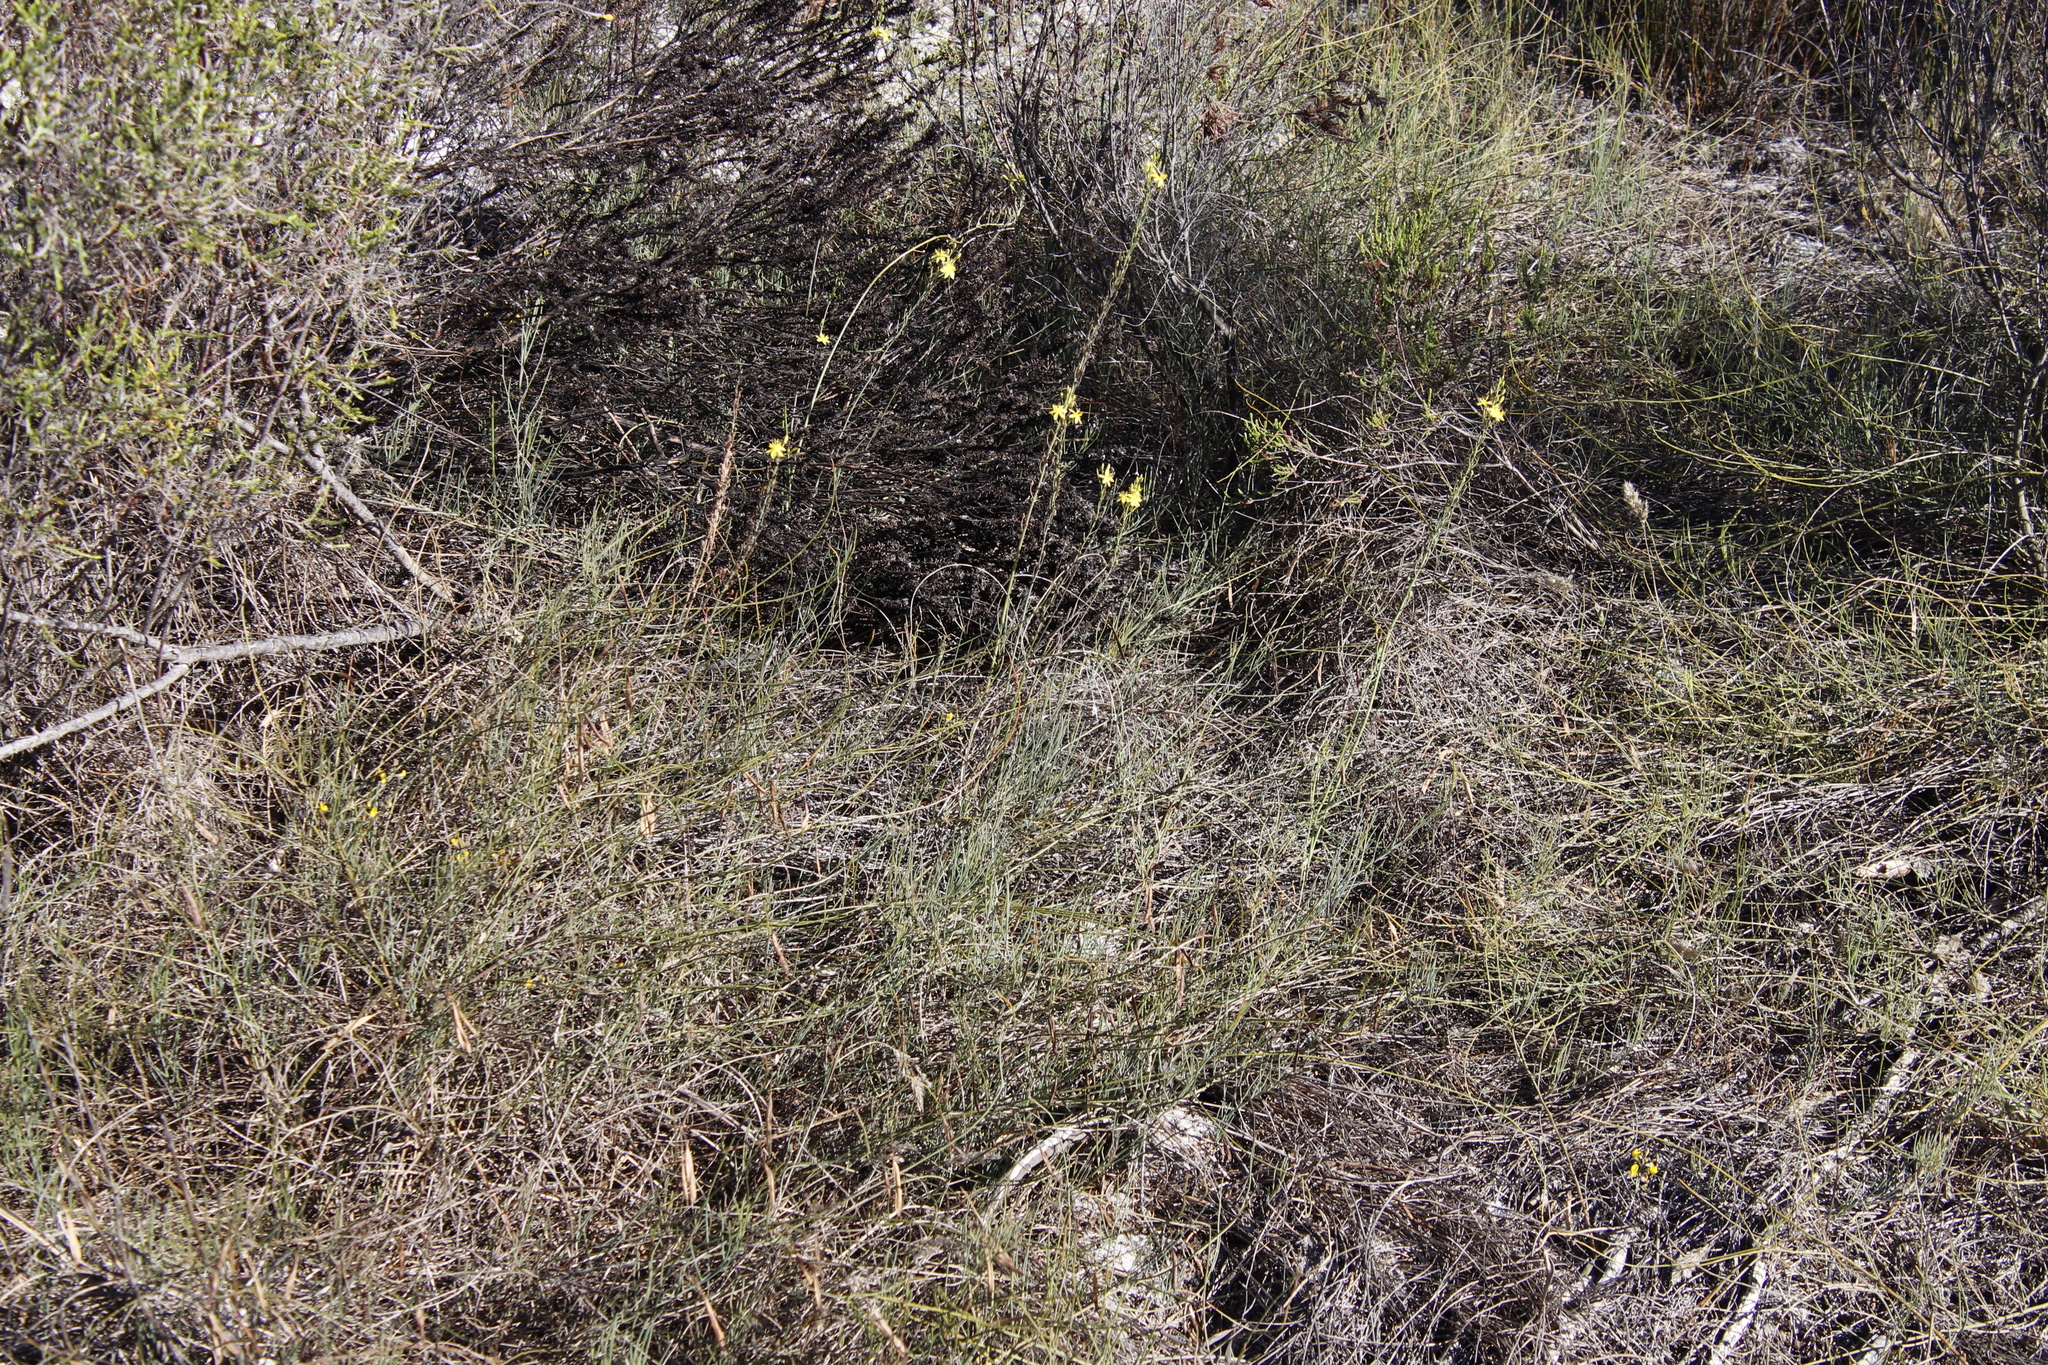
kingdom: Plantae
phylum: Tracheophyta
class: Liliopsida
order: Asparagales
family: Asphodelaceae
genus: Bulbine
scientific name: Bulbine favosa
